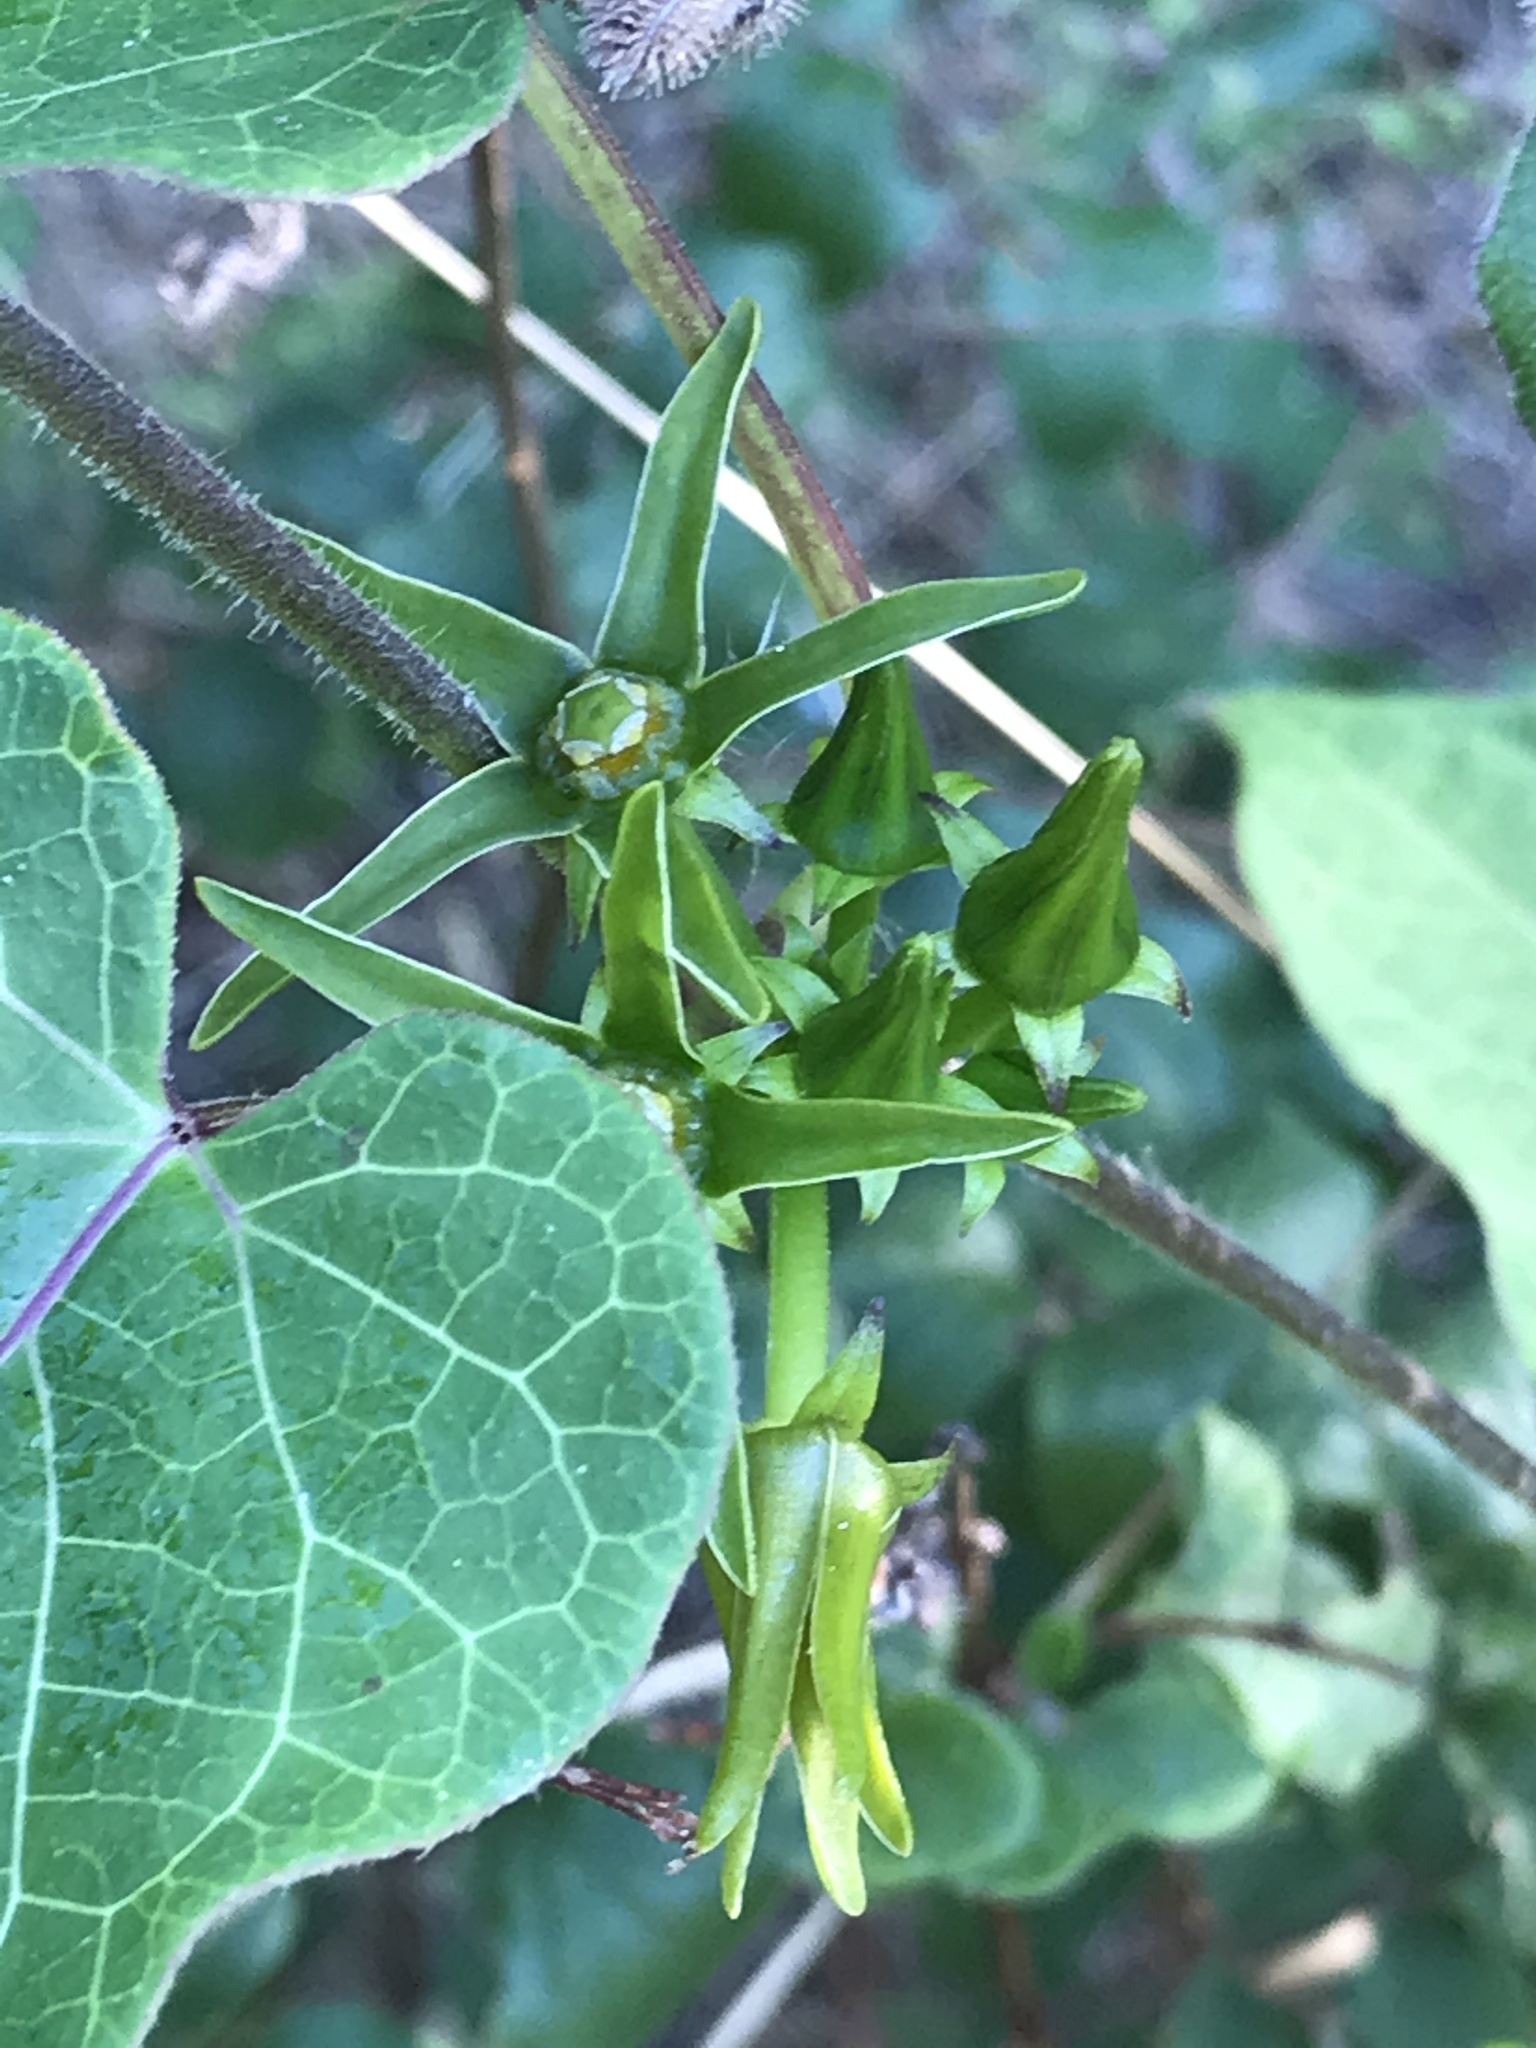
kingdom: Plantae
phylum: Tracheophyta
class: Magnoliopsida
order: Gentianales
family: Apocynaceae
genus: Gonolobus
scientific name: Gonolobus suberosus
